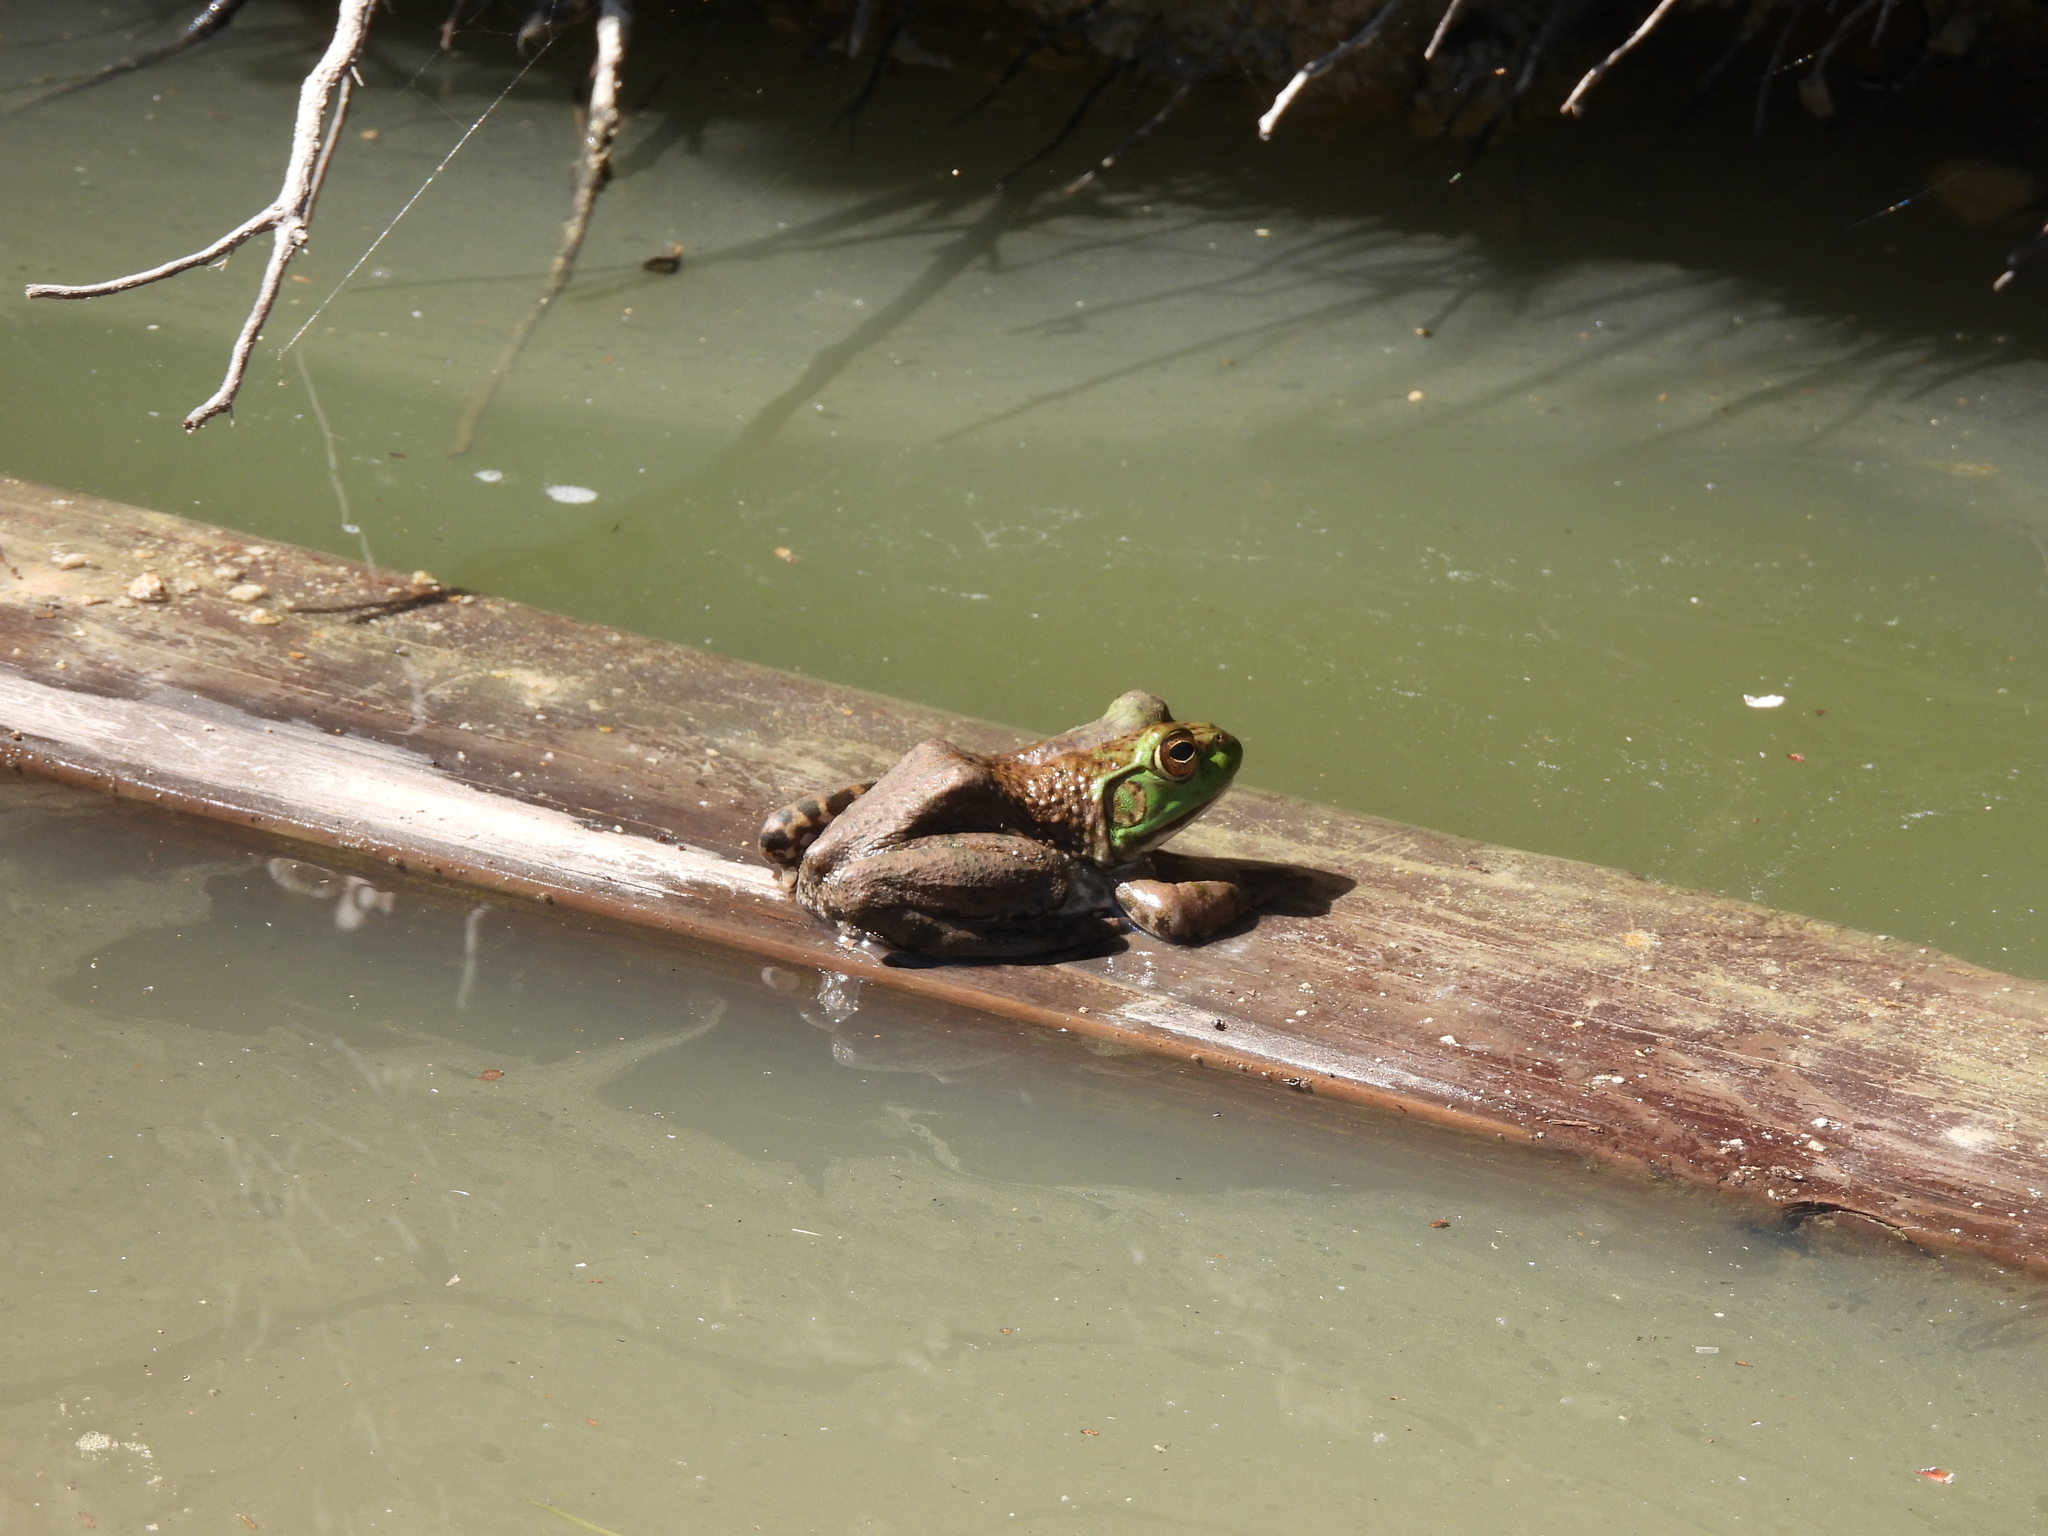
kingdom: Animalia
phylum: Chordata
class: Amphibia
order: Anura
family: Ranidae
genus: Lithobates
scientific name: Lithobates catesbeianus
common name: American bullfrog
